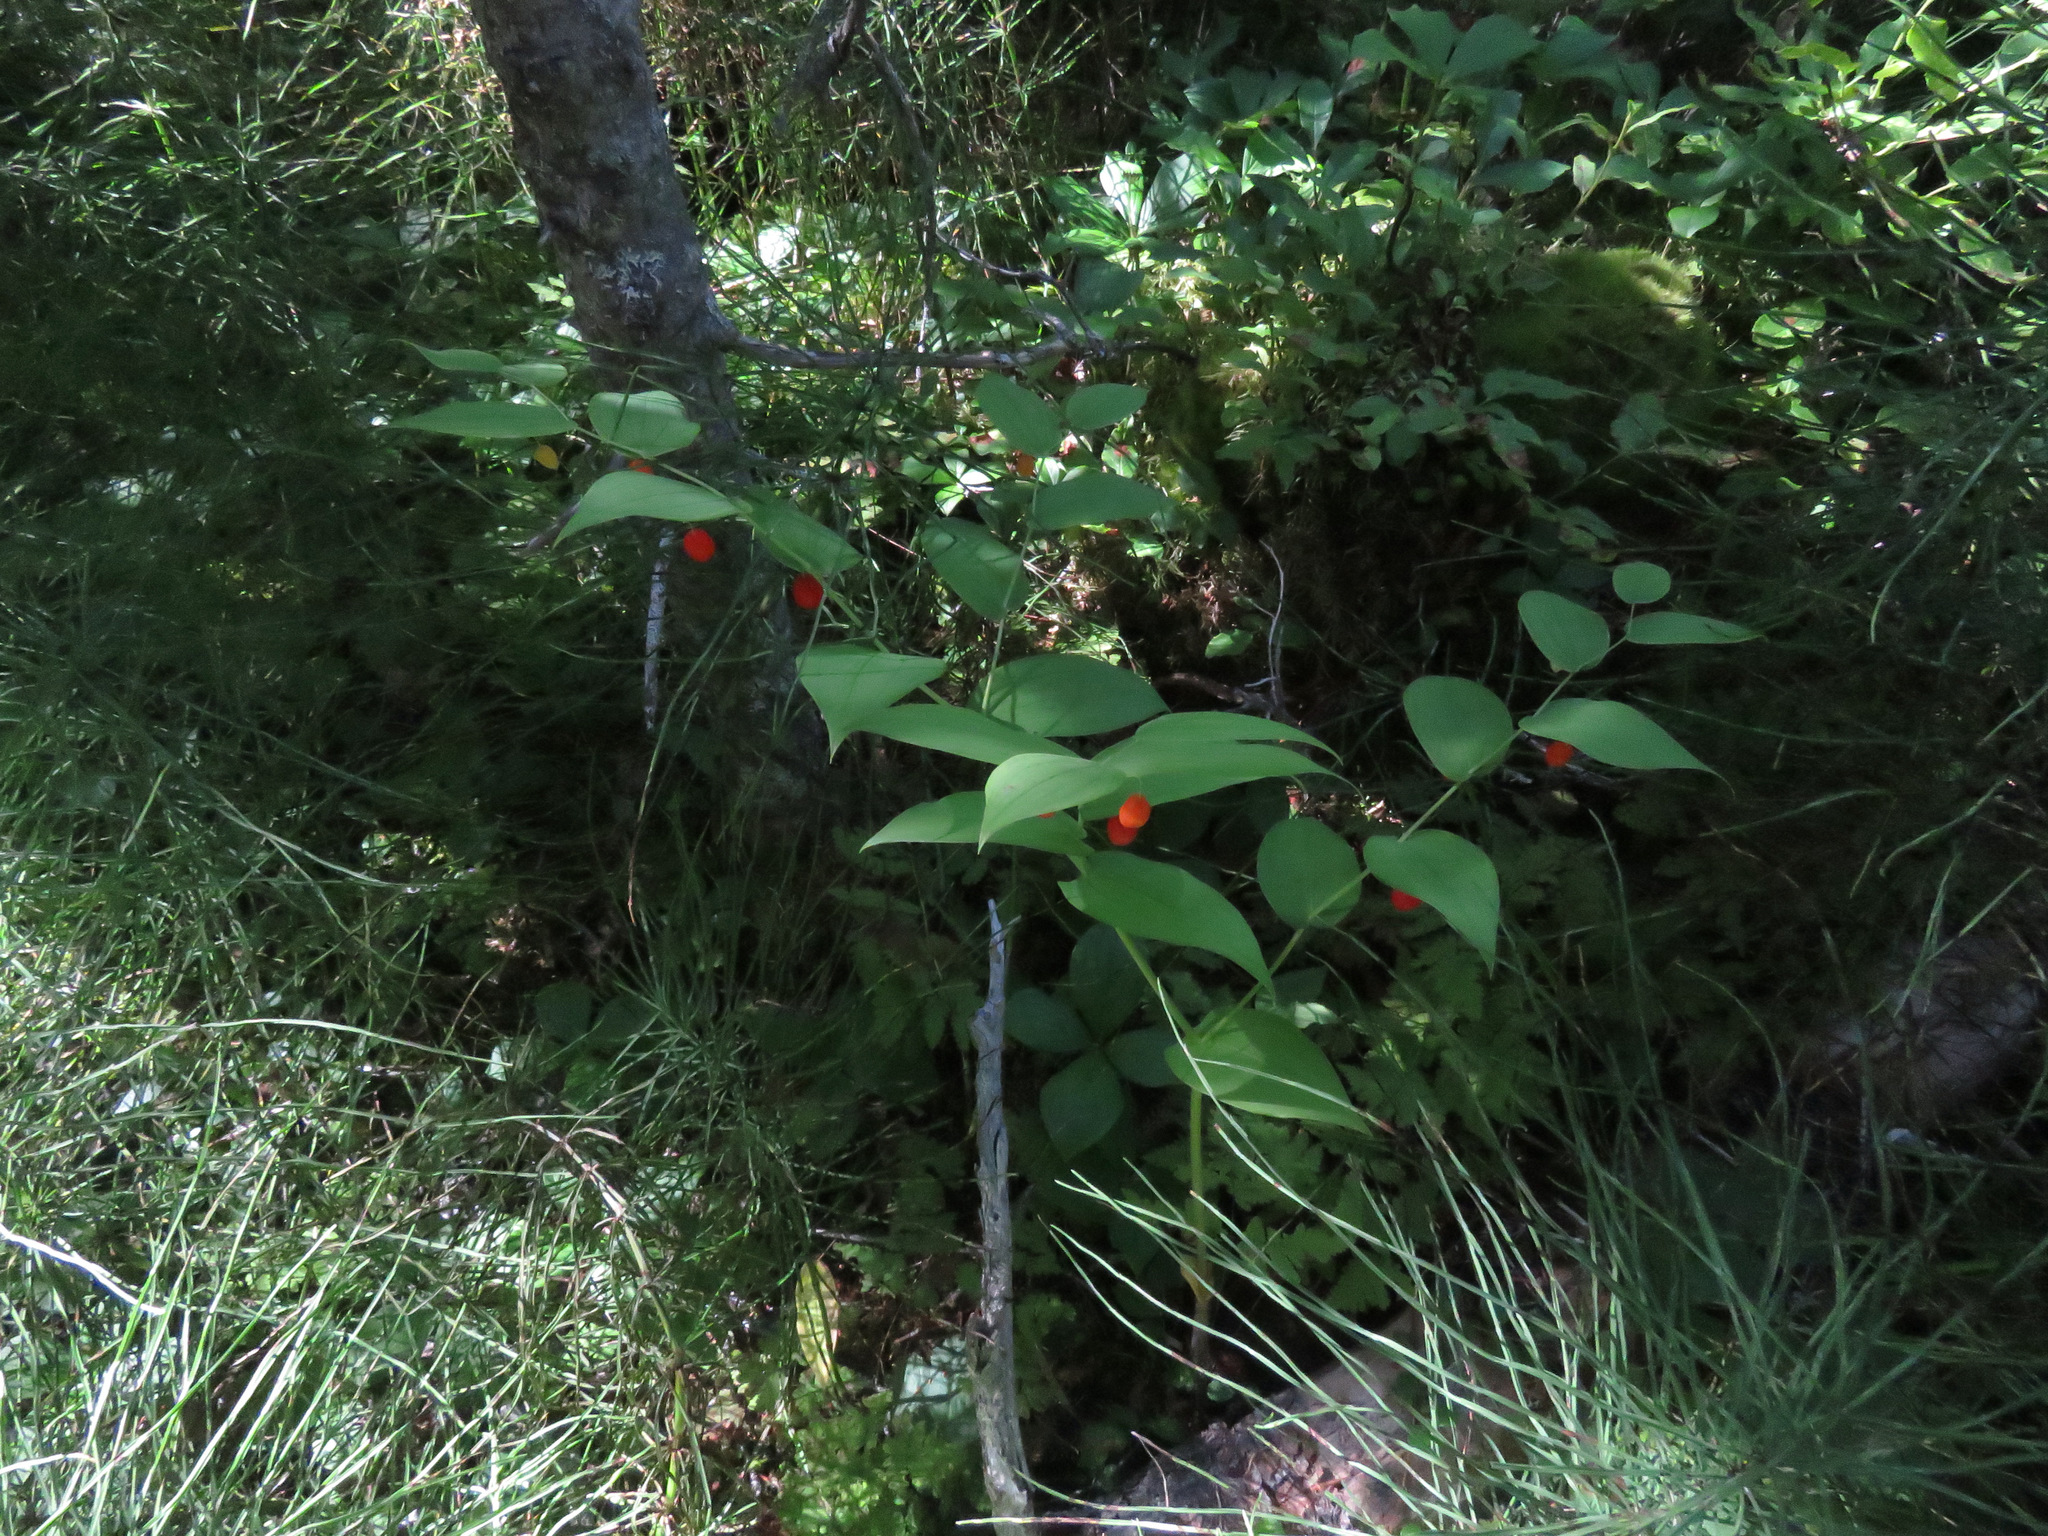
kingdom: Plantae
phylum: Tracheophyta
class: Liliopsida
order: Liliales
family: Liliaceae
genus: Streptopus
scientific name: Streptopus amplexifolius
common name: Clasp twisted stalk
